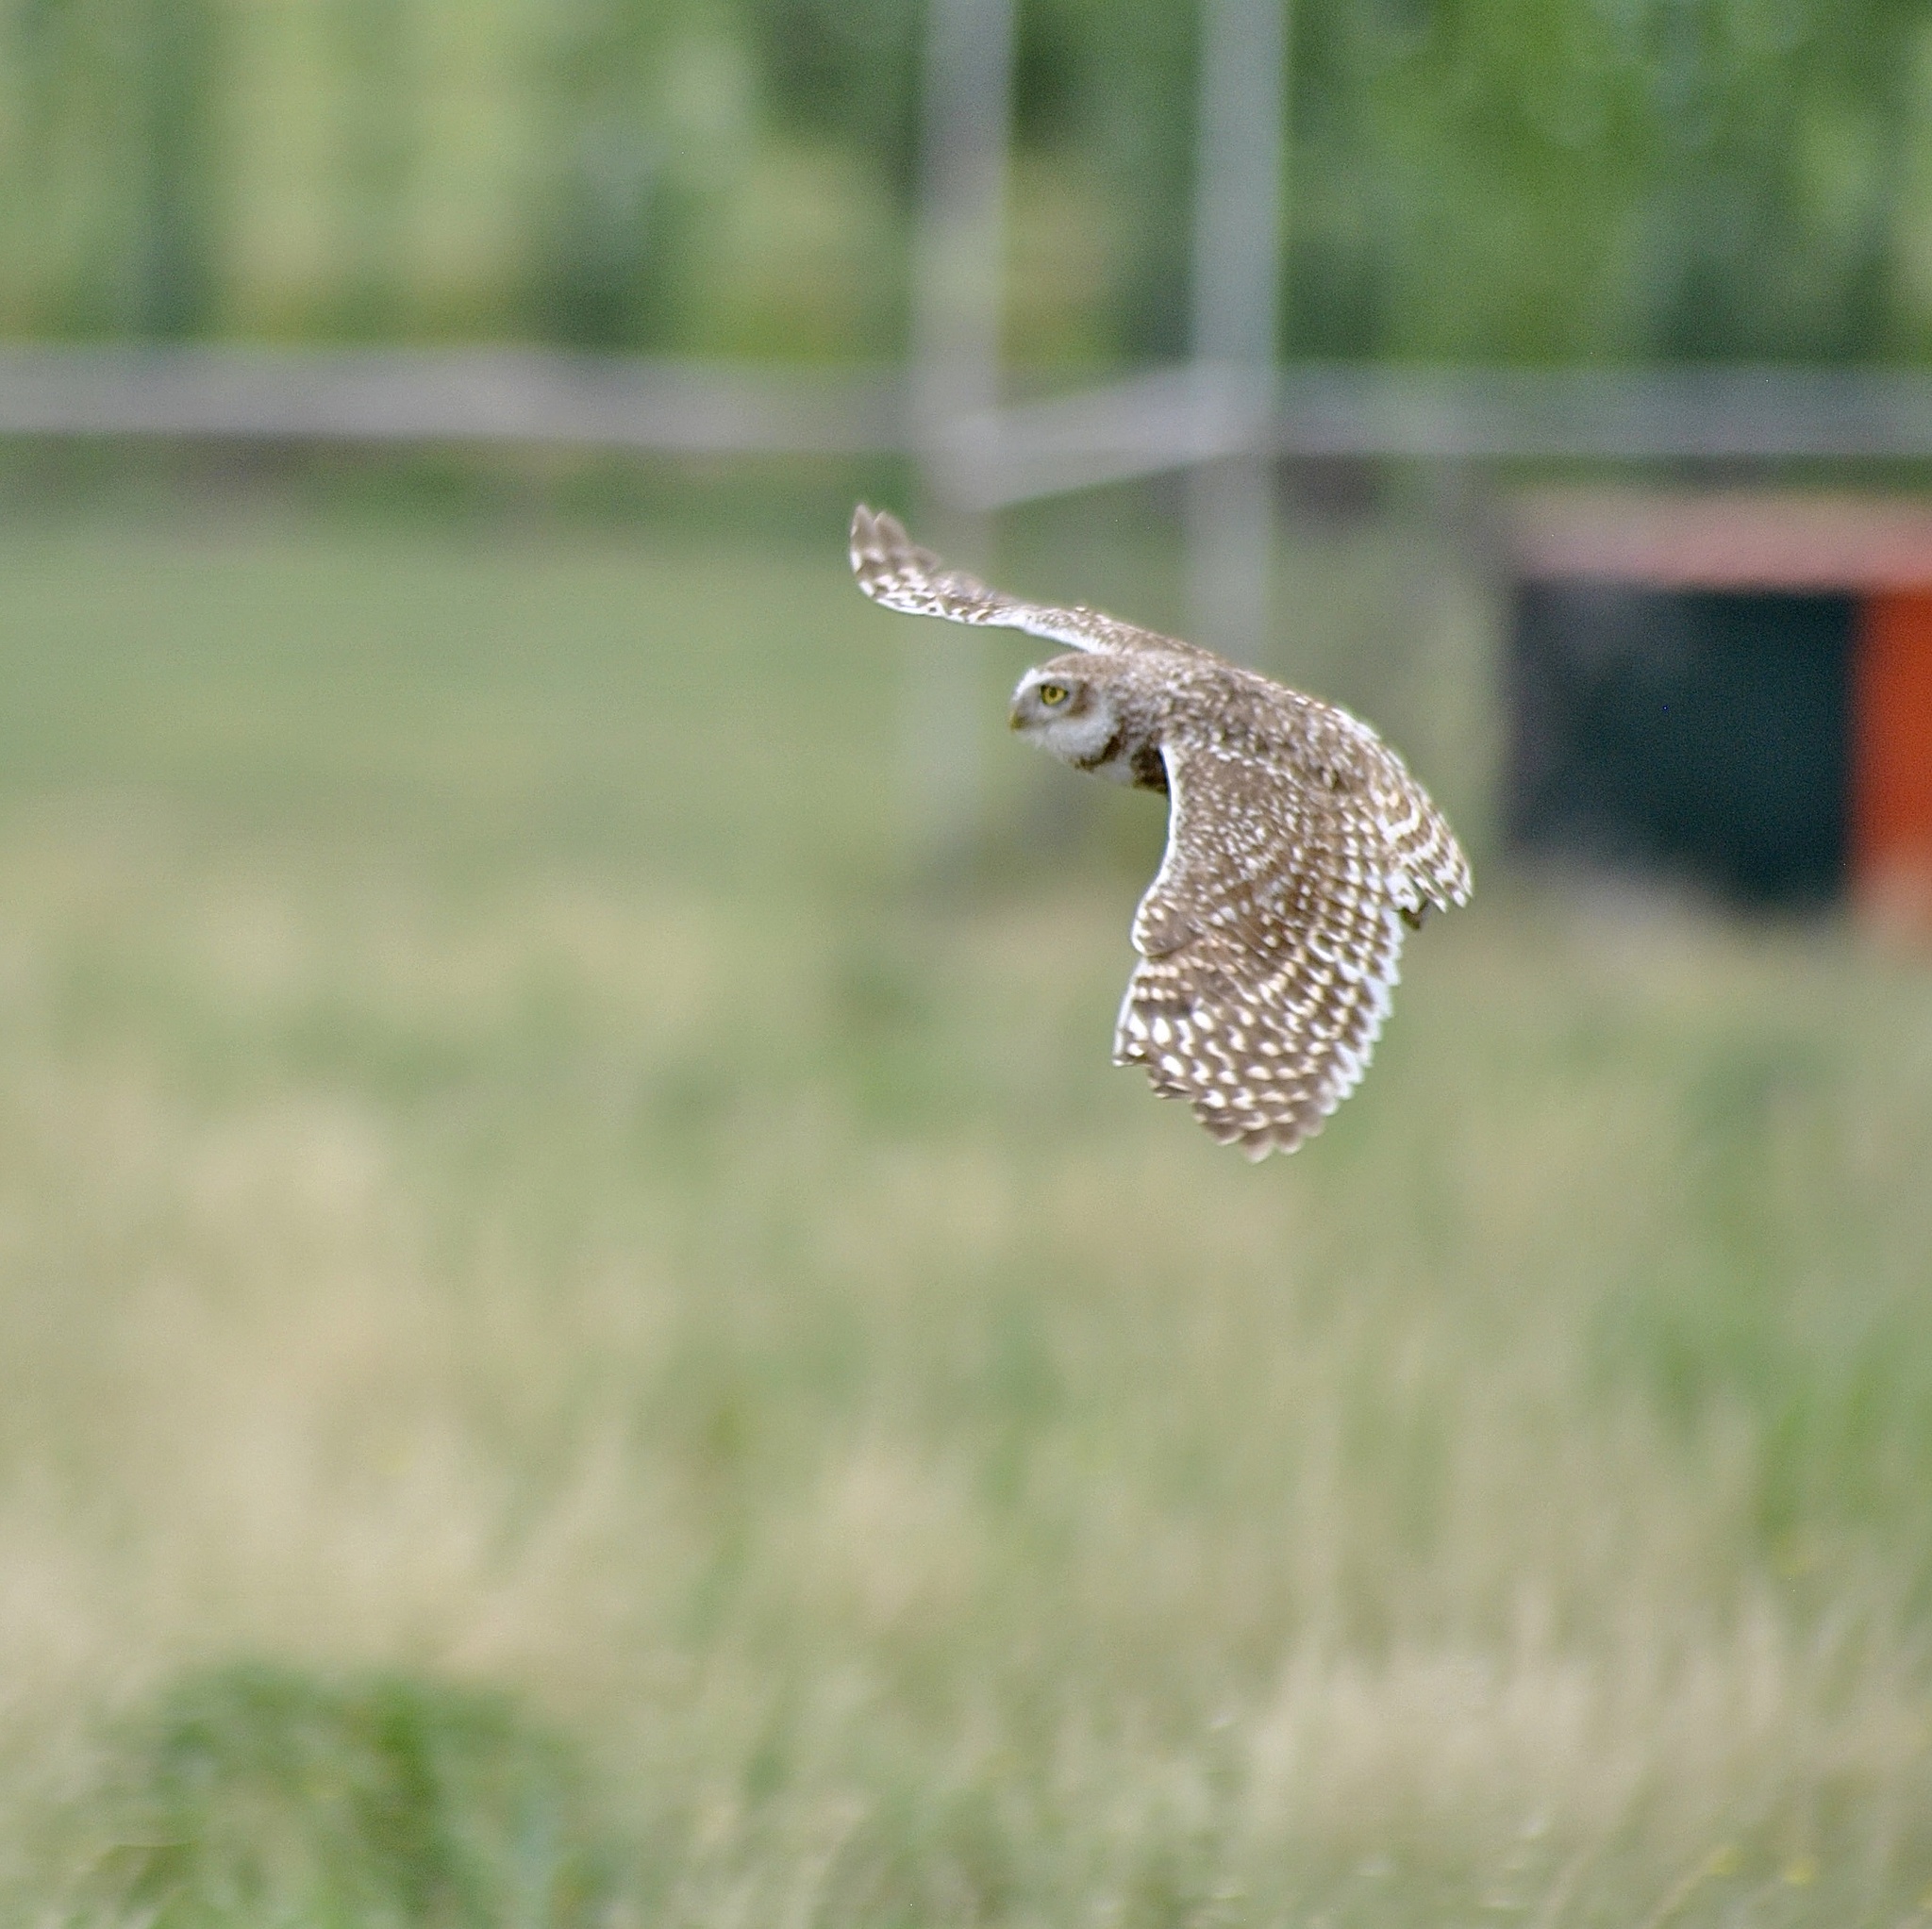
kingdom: Animalia
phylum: Chordata
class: Aves
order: Strigiformes
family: Strigidae
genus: Athene
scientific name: Athene cunicularia
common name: Burrowing owl
